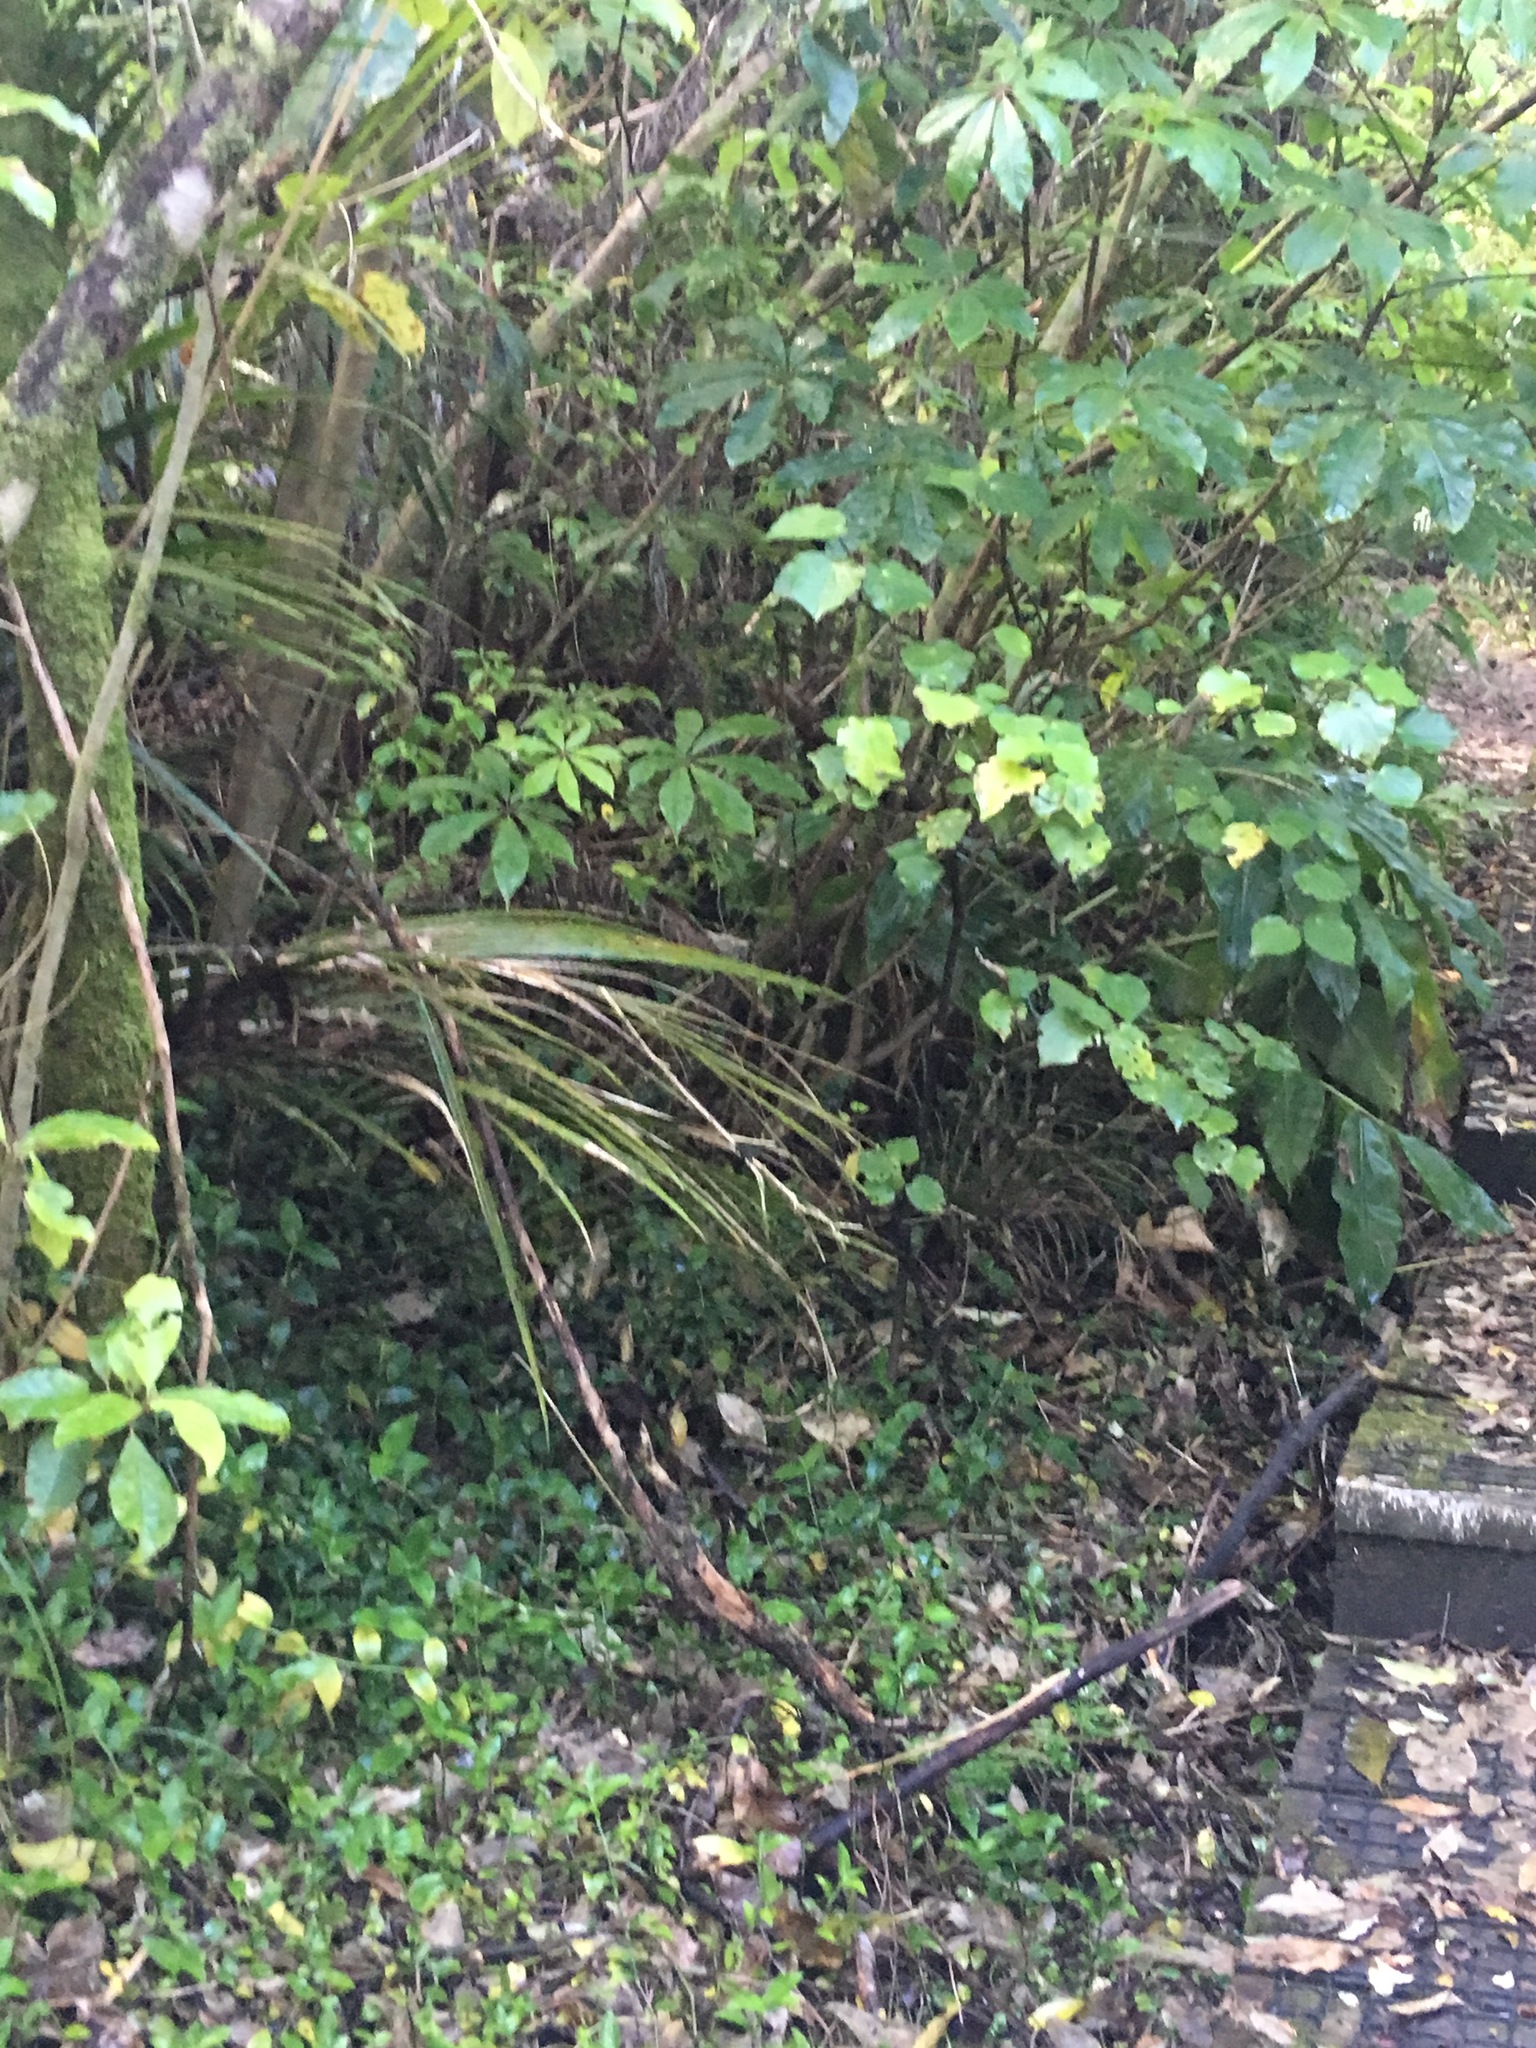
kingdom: Plantae
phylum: Tracheophyta
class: Magnoliopsida
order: Piperales
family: Piperaceae
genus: Macropiper
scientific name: Macropiper excelsum
